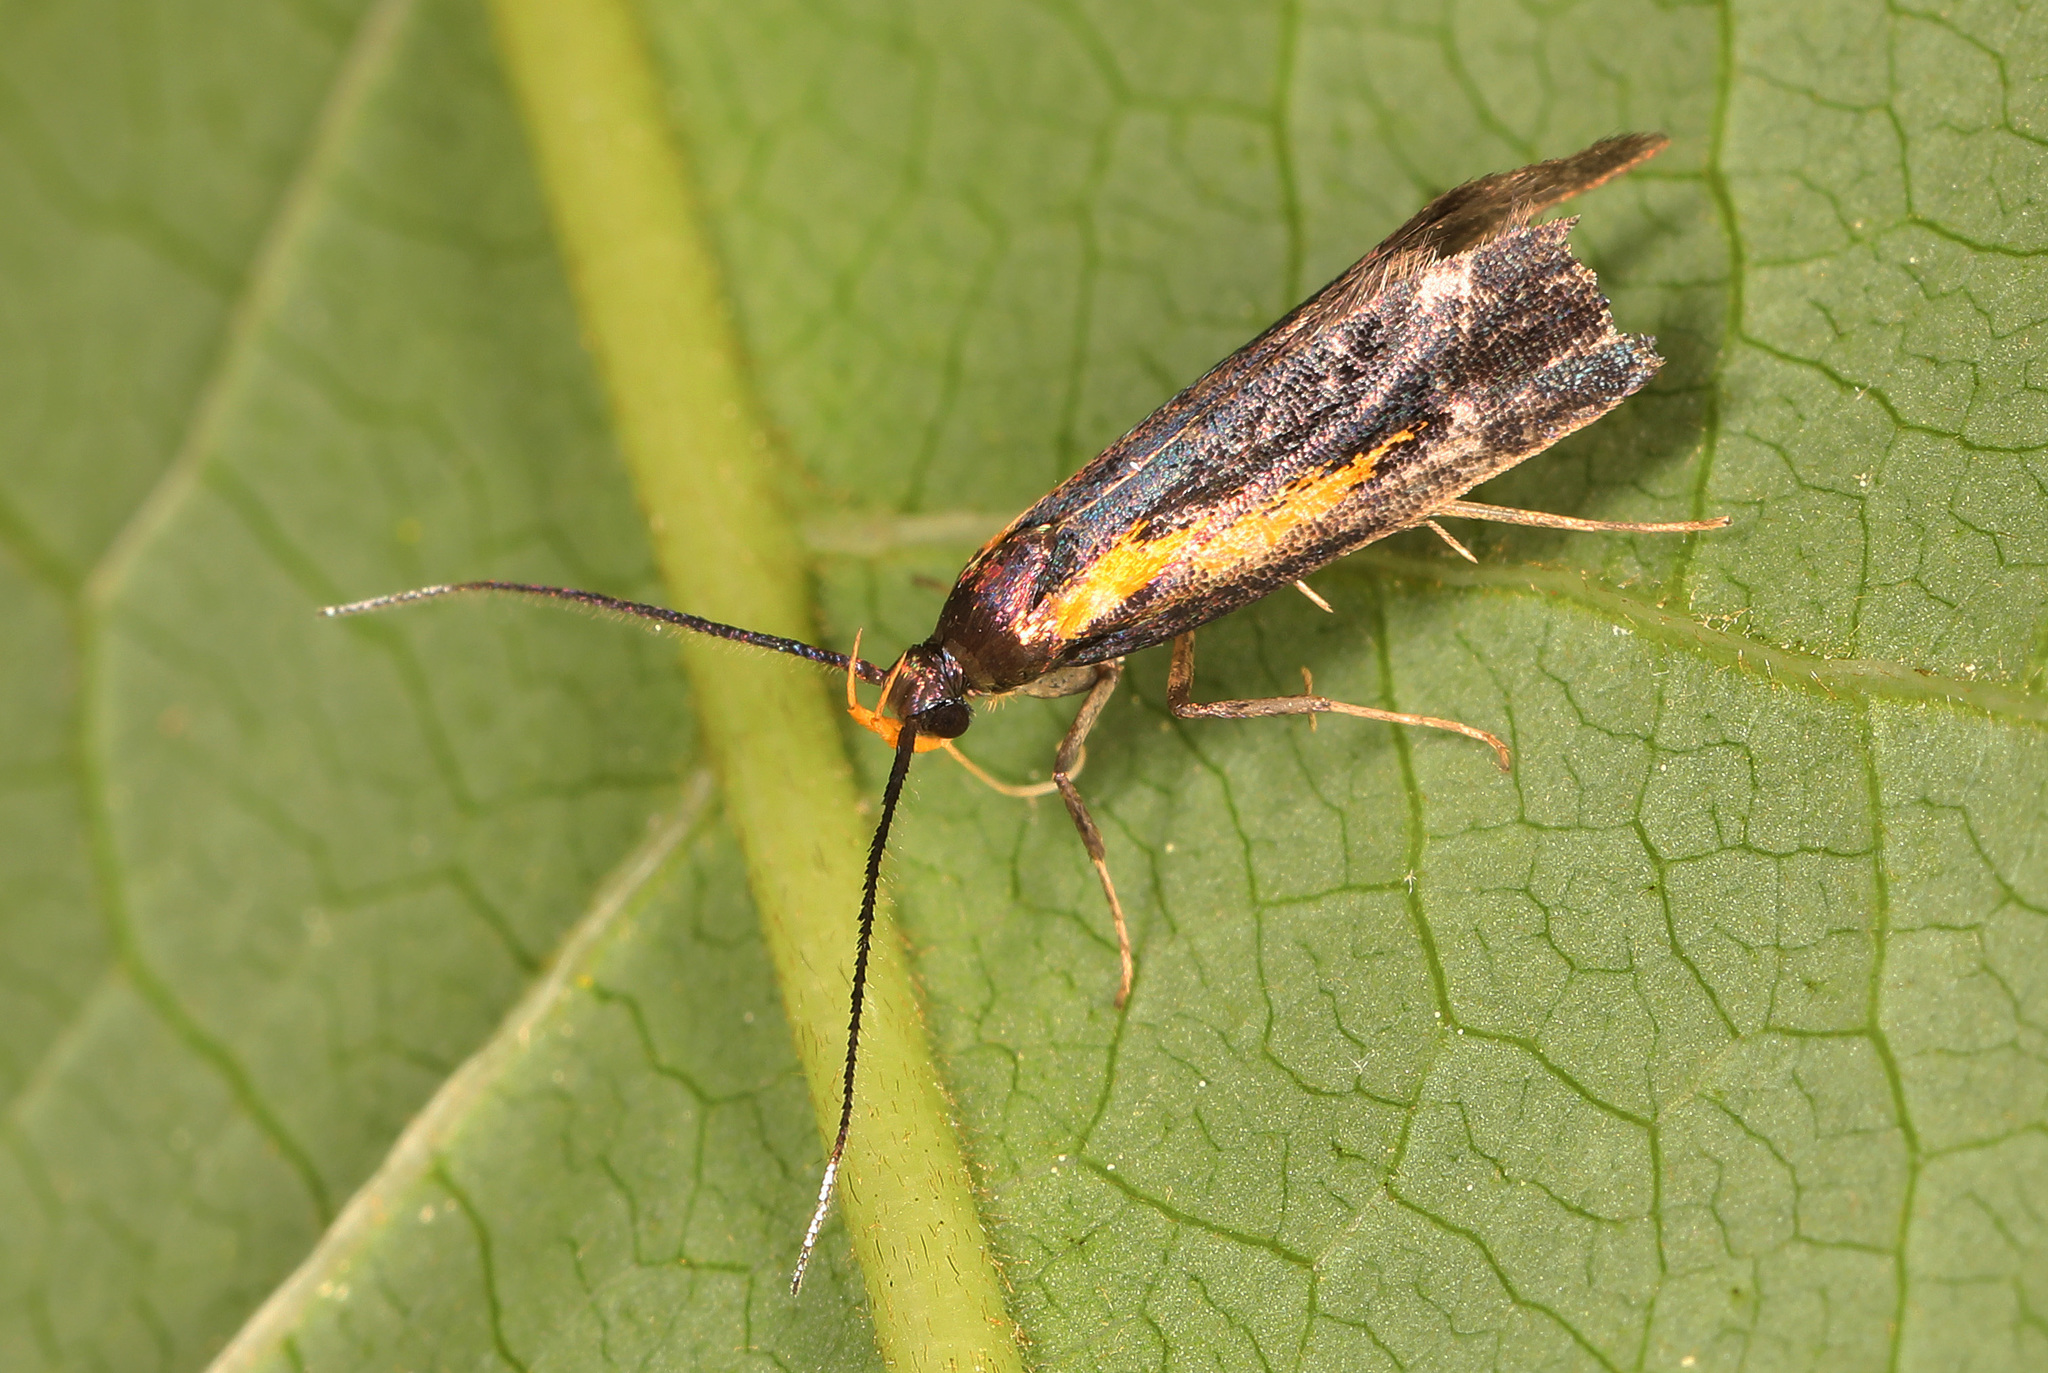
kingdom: Animalia
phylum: Arthropoda
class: Insecta
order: Lepidoptera
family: Oecophoridae
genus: Mathildana
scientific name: Mathildana newmanella
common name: Newman's mathildana moth
